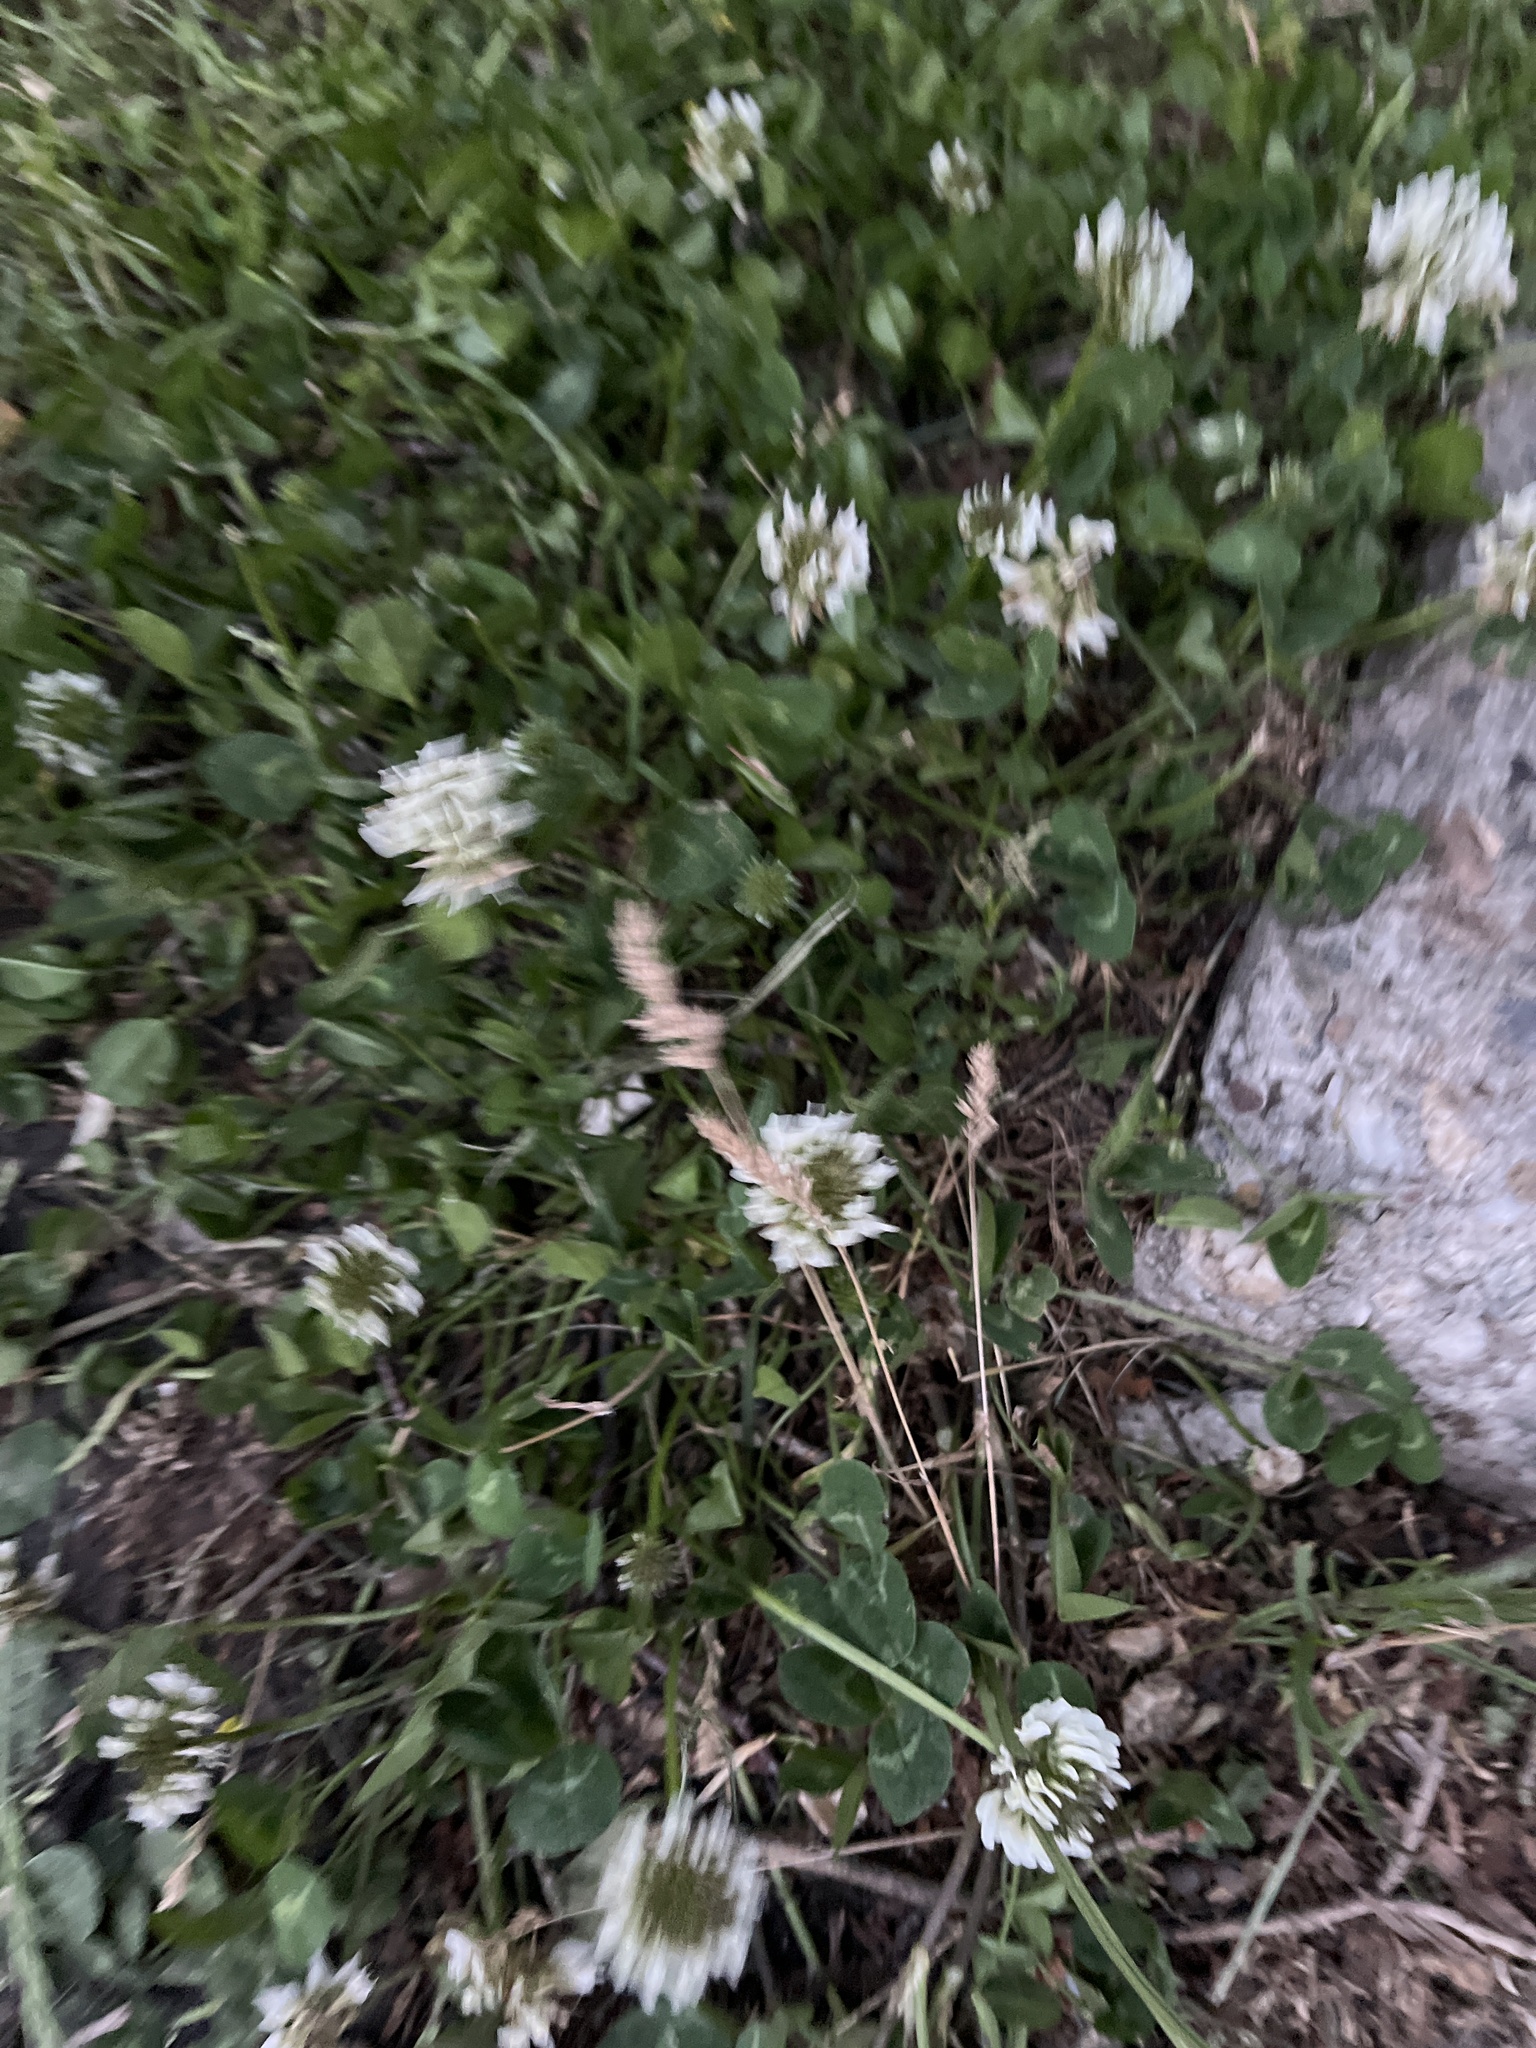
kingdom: Plantae
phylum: Tracheophyta
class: Magnoliopsida
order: Fabales
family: Fabaceae
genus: Trifolium
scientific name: Trifolium repens
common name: White clover
